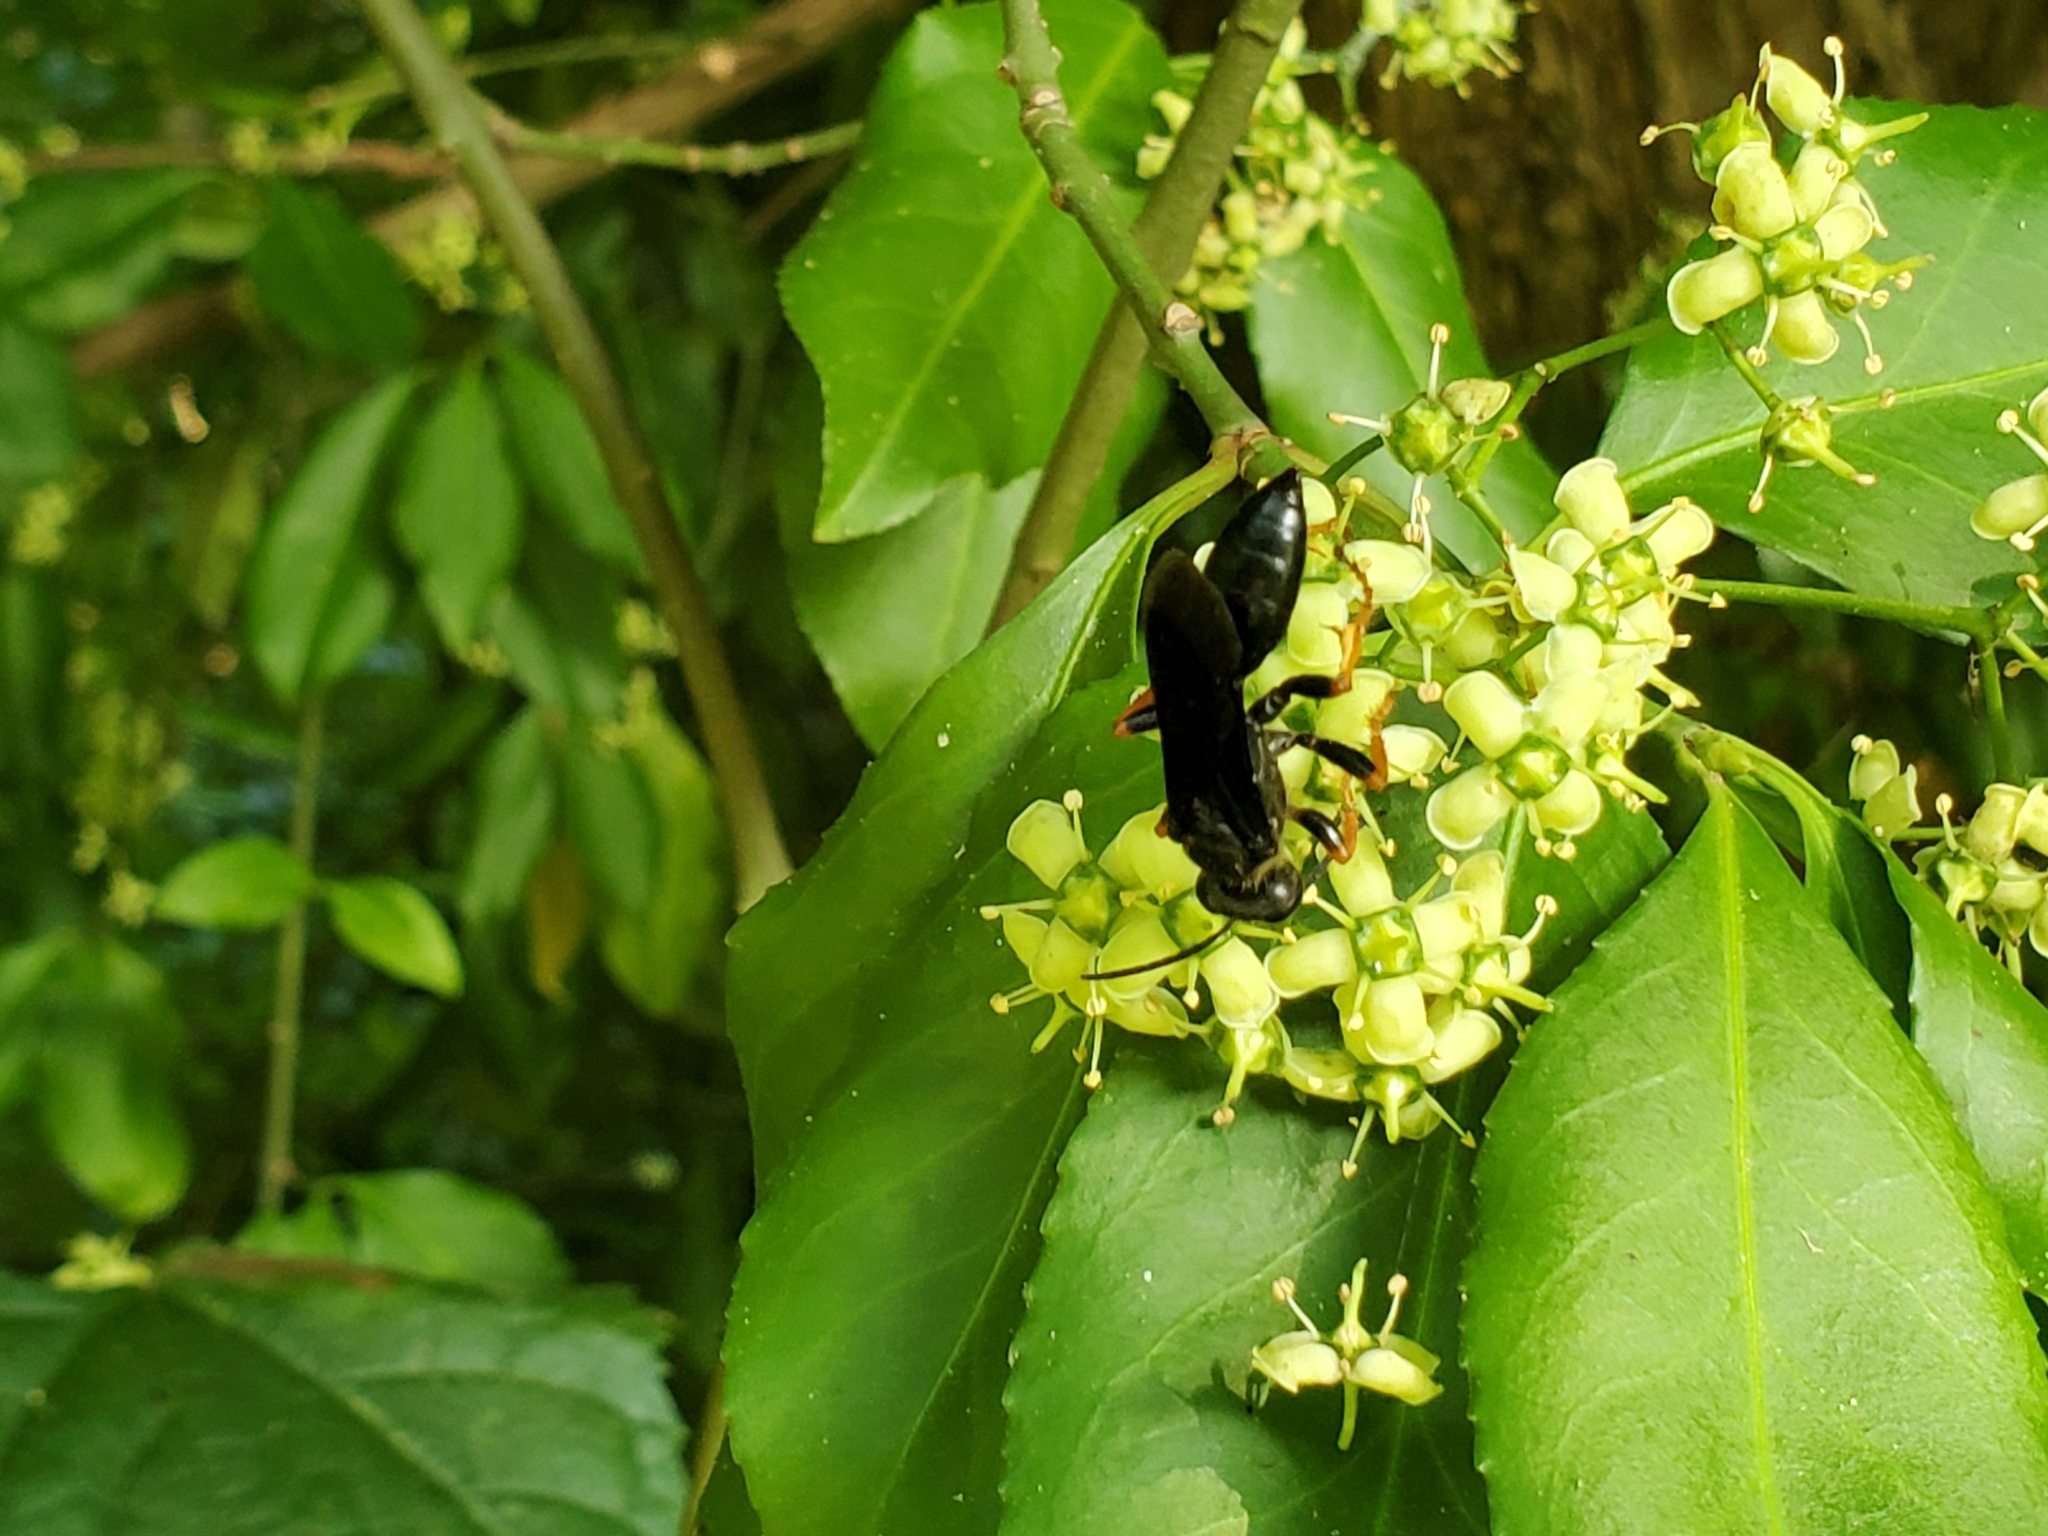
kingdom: Plantae
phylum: Tracheophyta
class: Magnoliopsida
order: Celastrales
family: Celastraceae
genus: Euonymus
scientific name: Euonymus fortunei
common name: Climbing euonymus
